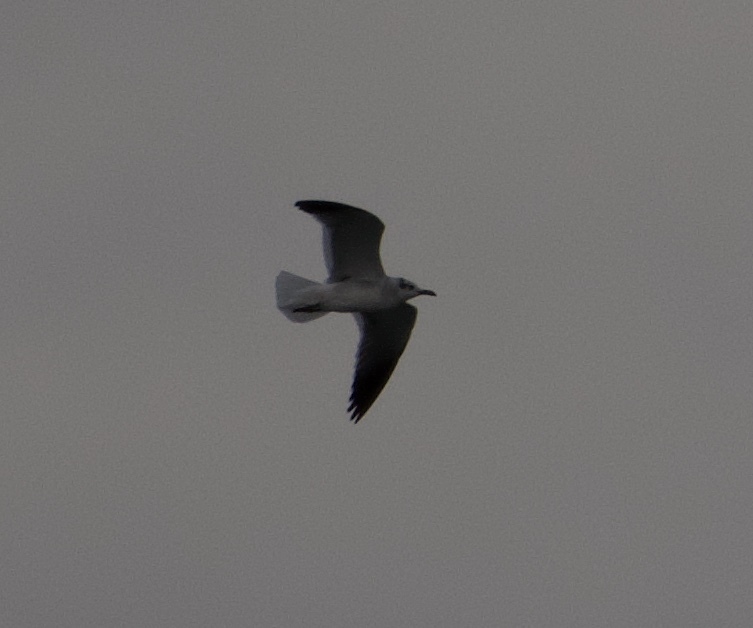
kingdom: Animalia
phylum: Chordata
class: Aves
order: Charadriiformes
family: Laridae
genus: Leucophaeus
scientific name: Leucophaeus atricilla
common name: Laughing gull
